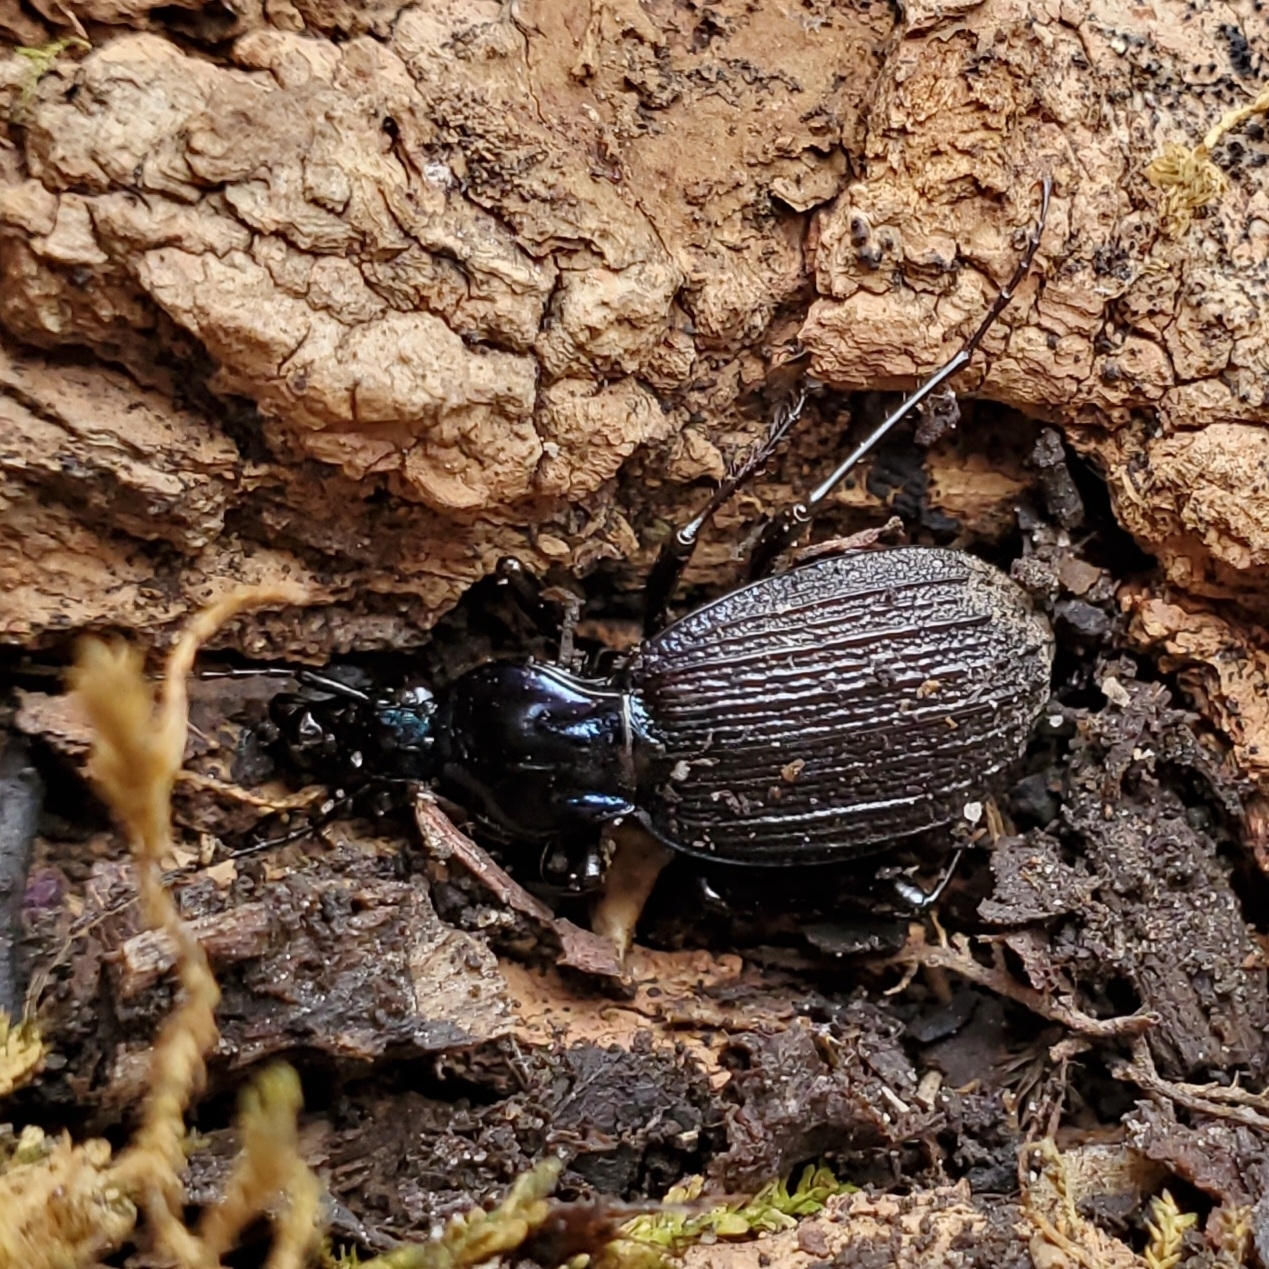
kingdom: Animalia
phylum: Arthropoda
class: Insecta
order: Coleoptera
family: Carabidae
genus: Sphaeroderus
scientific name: Sphaeroderus bicarinatus
